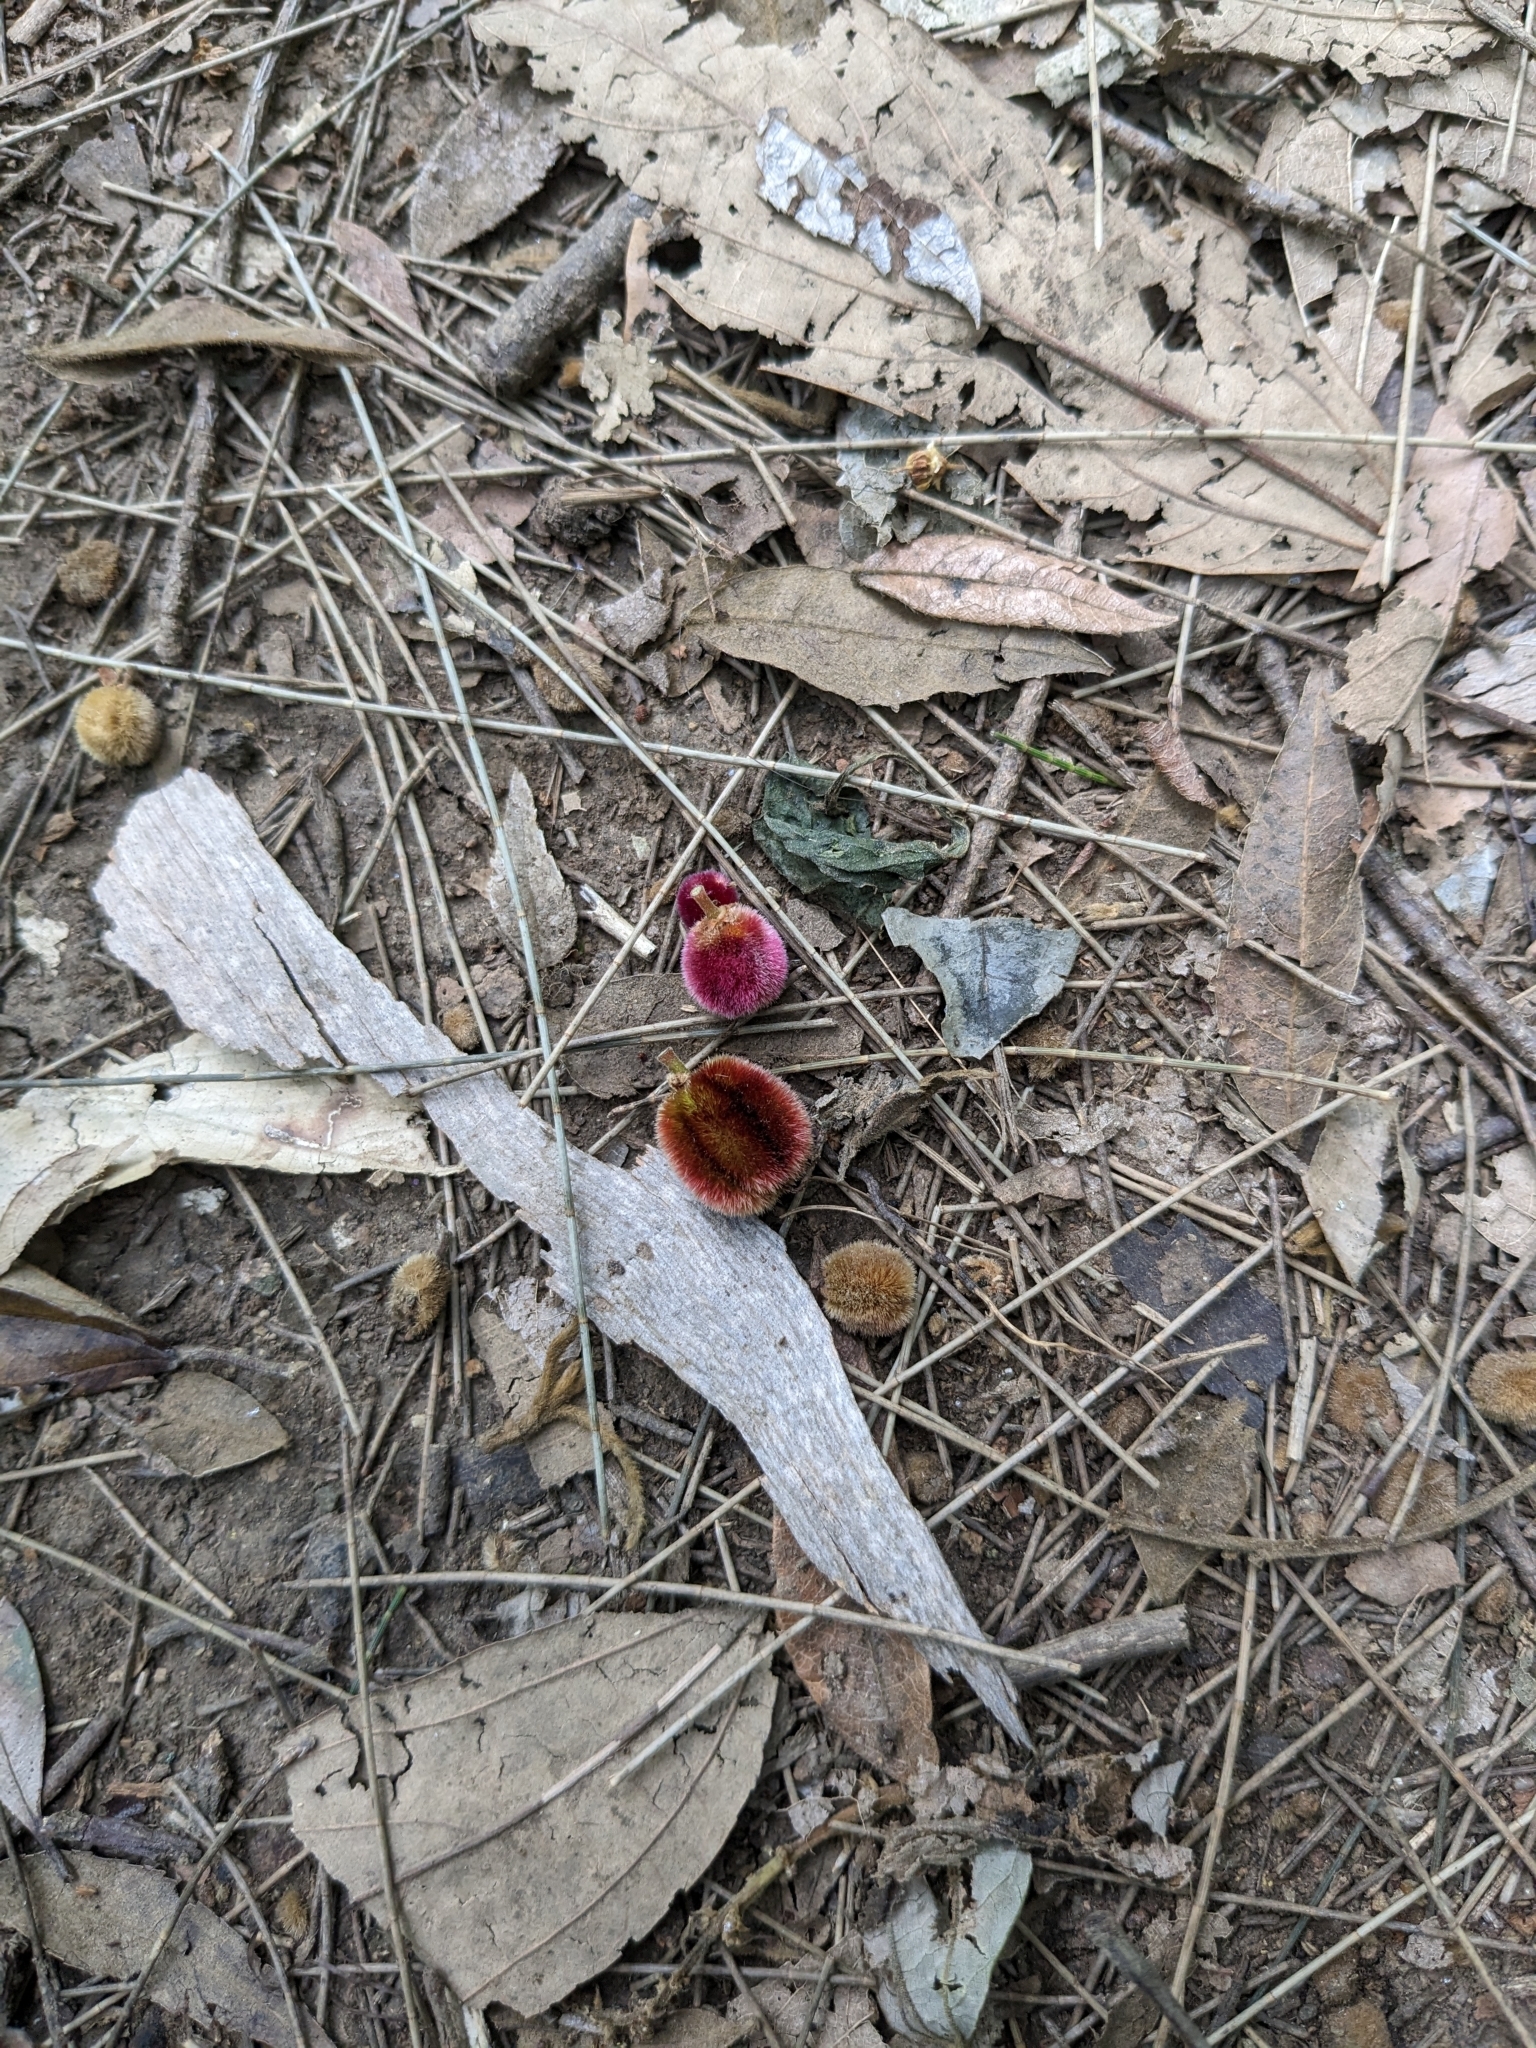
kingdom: Plantae
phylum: Tracheophyta
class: Magnoliopsida
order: Sapindales
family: Sapindaceae
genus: Jagera
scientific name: Jagera pseudorhus
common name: Fern-leaf-tamarind
